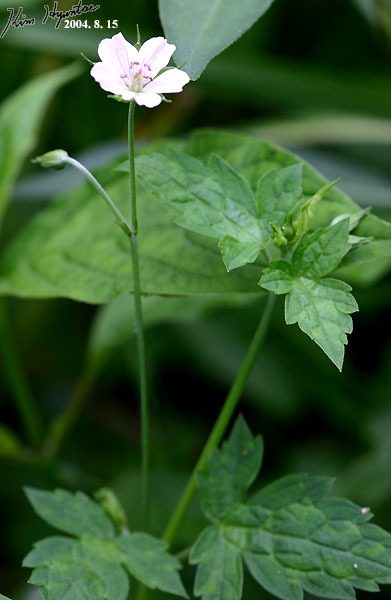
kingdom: Plantae
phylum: Tracheophyta
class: Magnoliopsida
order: Geraniales
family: Geraniaceae
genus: Geranium
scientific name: Geranium thunbergii
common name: Dewdrop crane's-bill
